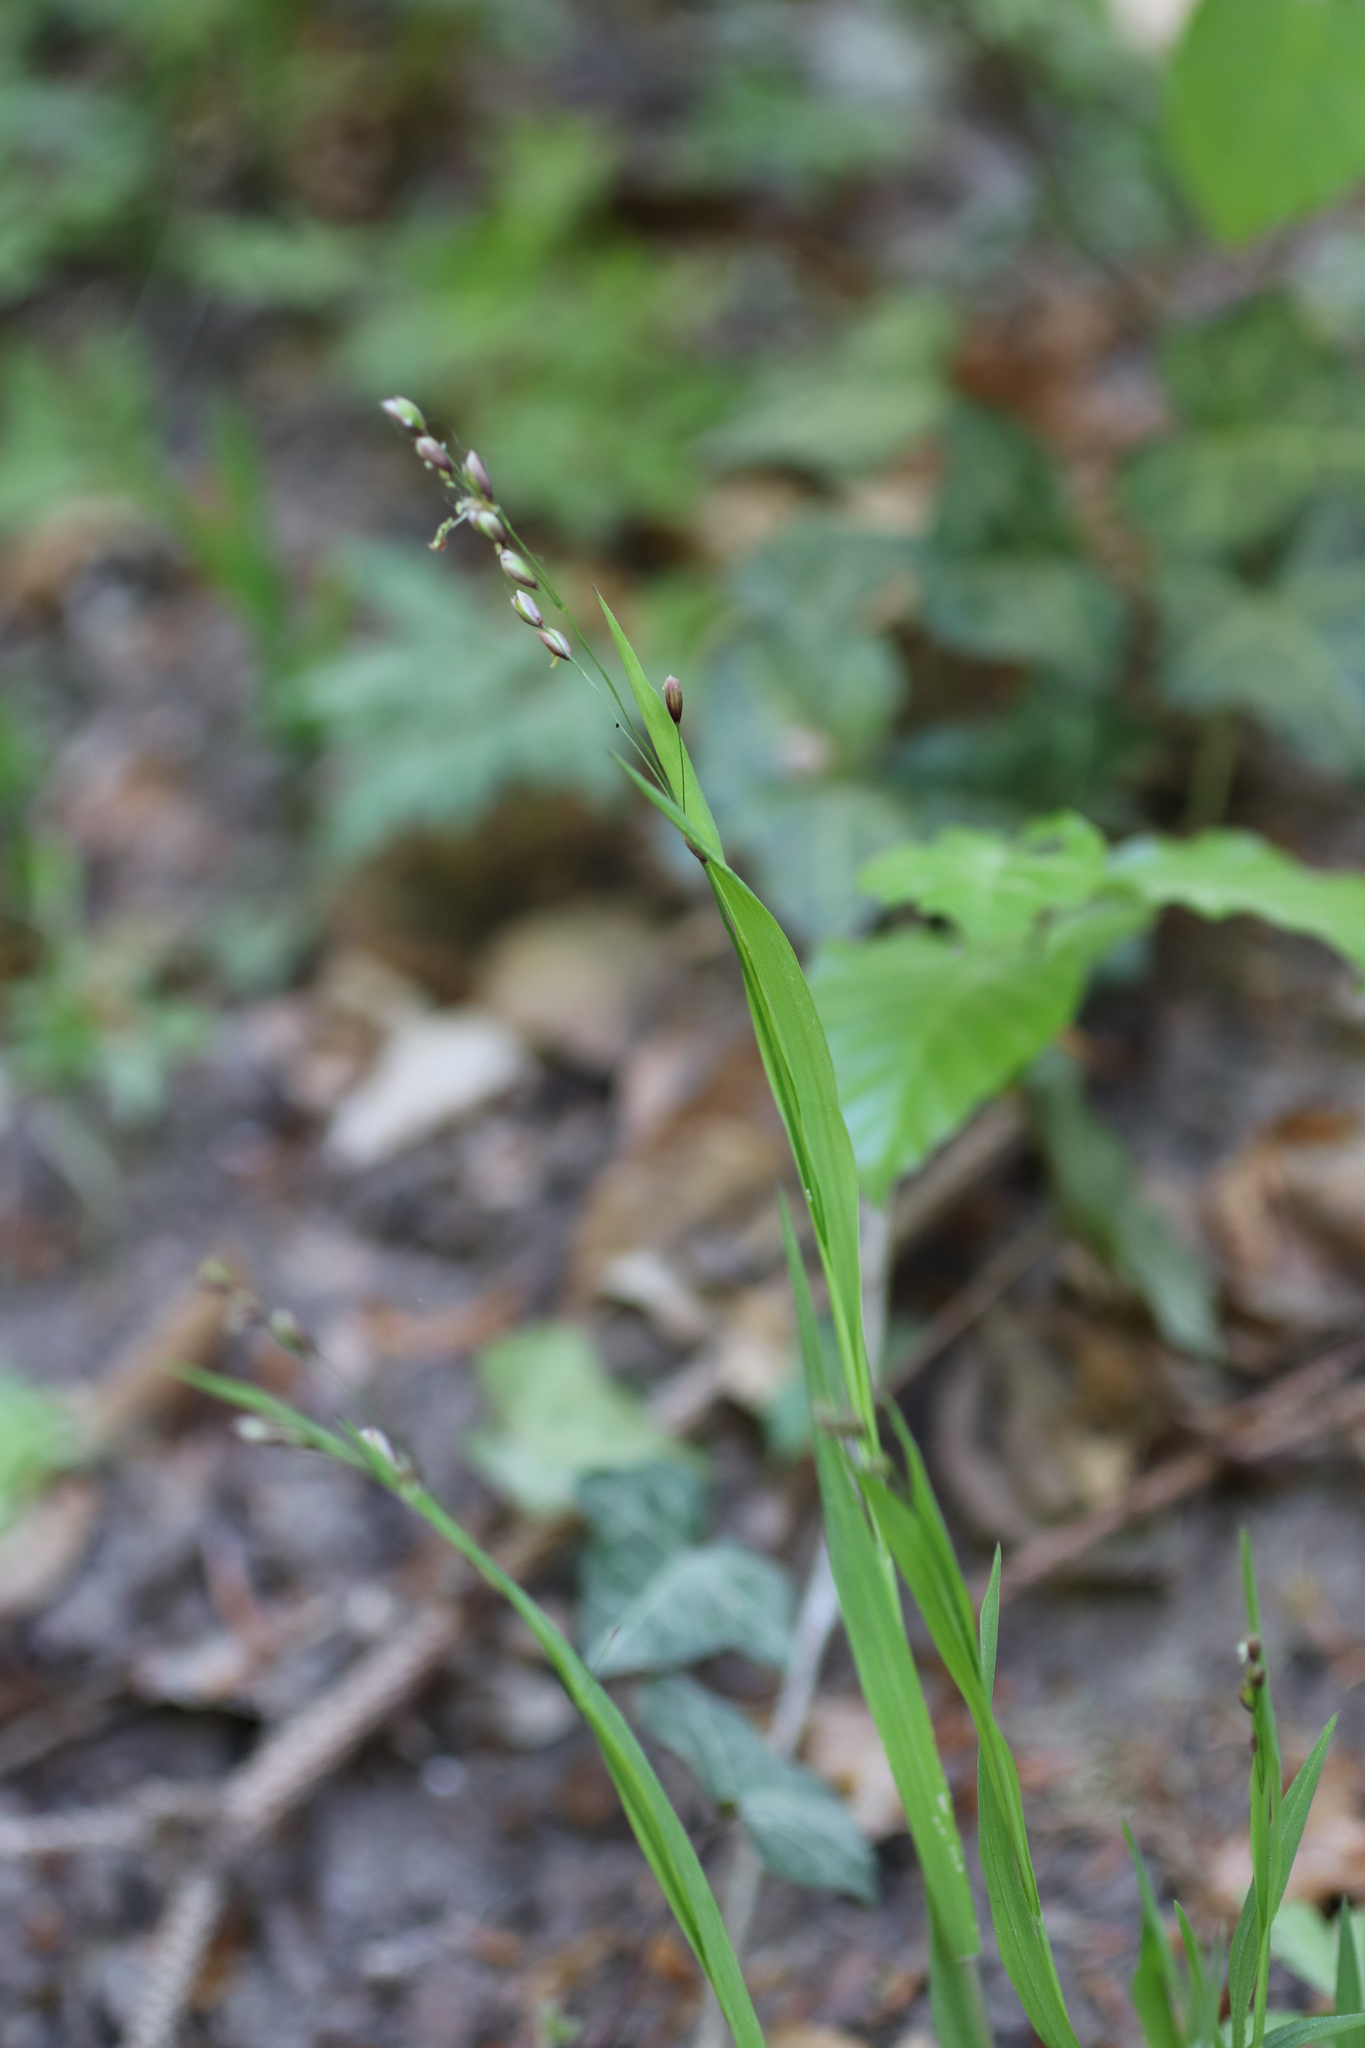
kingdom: Plantae
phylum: Tracheophyta
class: Liliopsida
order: Poales
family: Poaceae
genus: Melica
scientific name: Melica uniflora
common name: Wood melick
